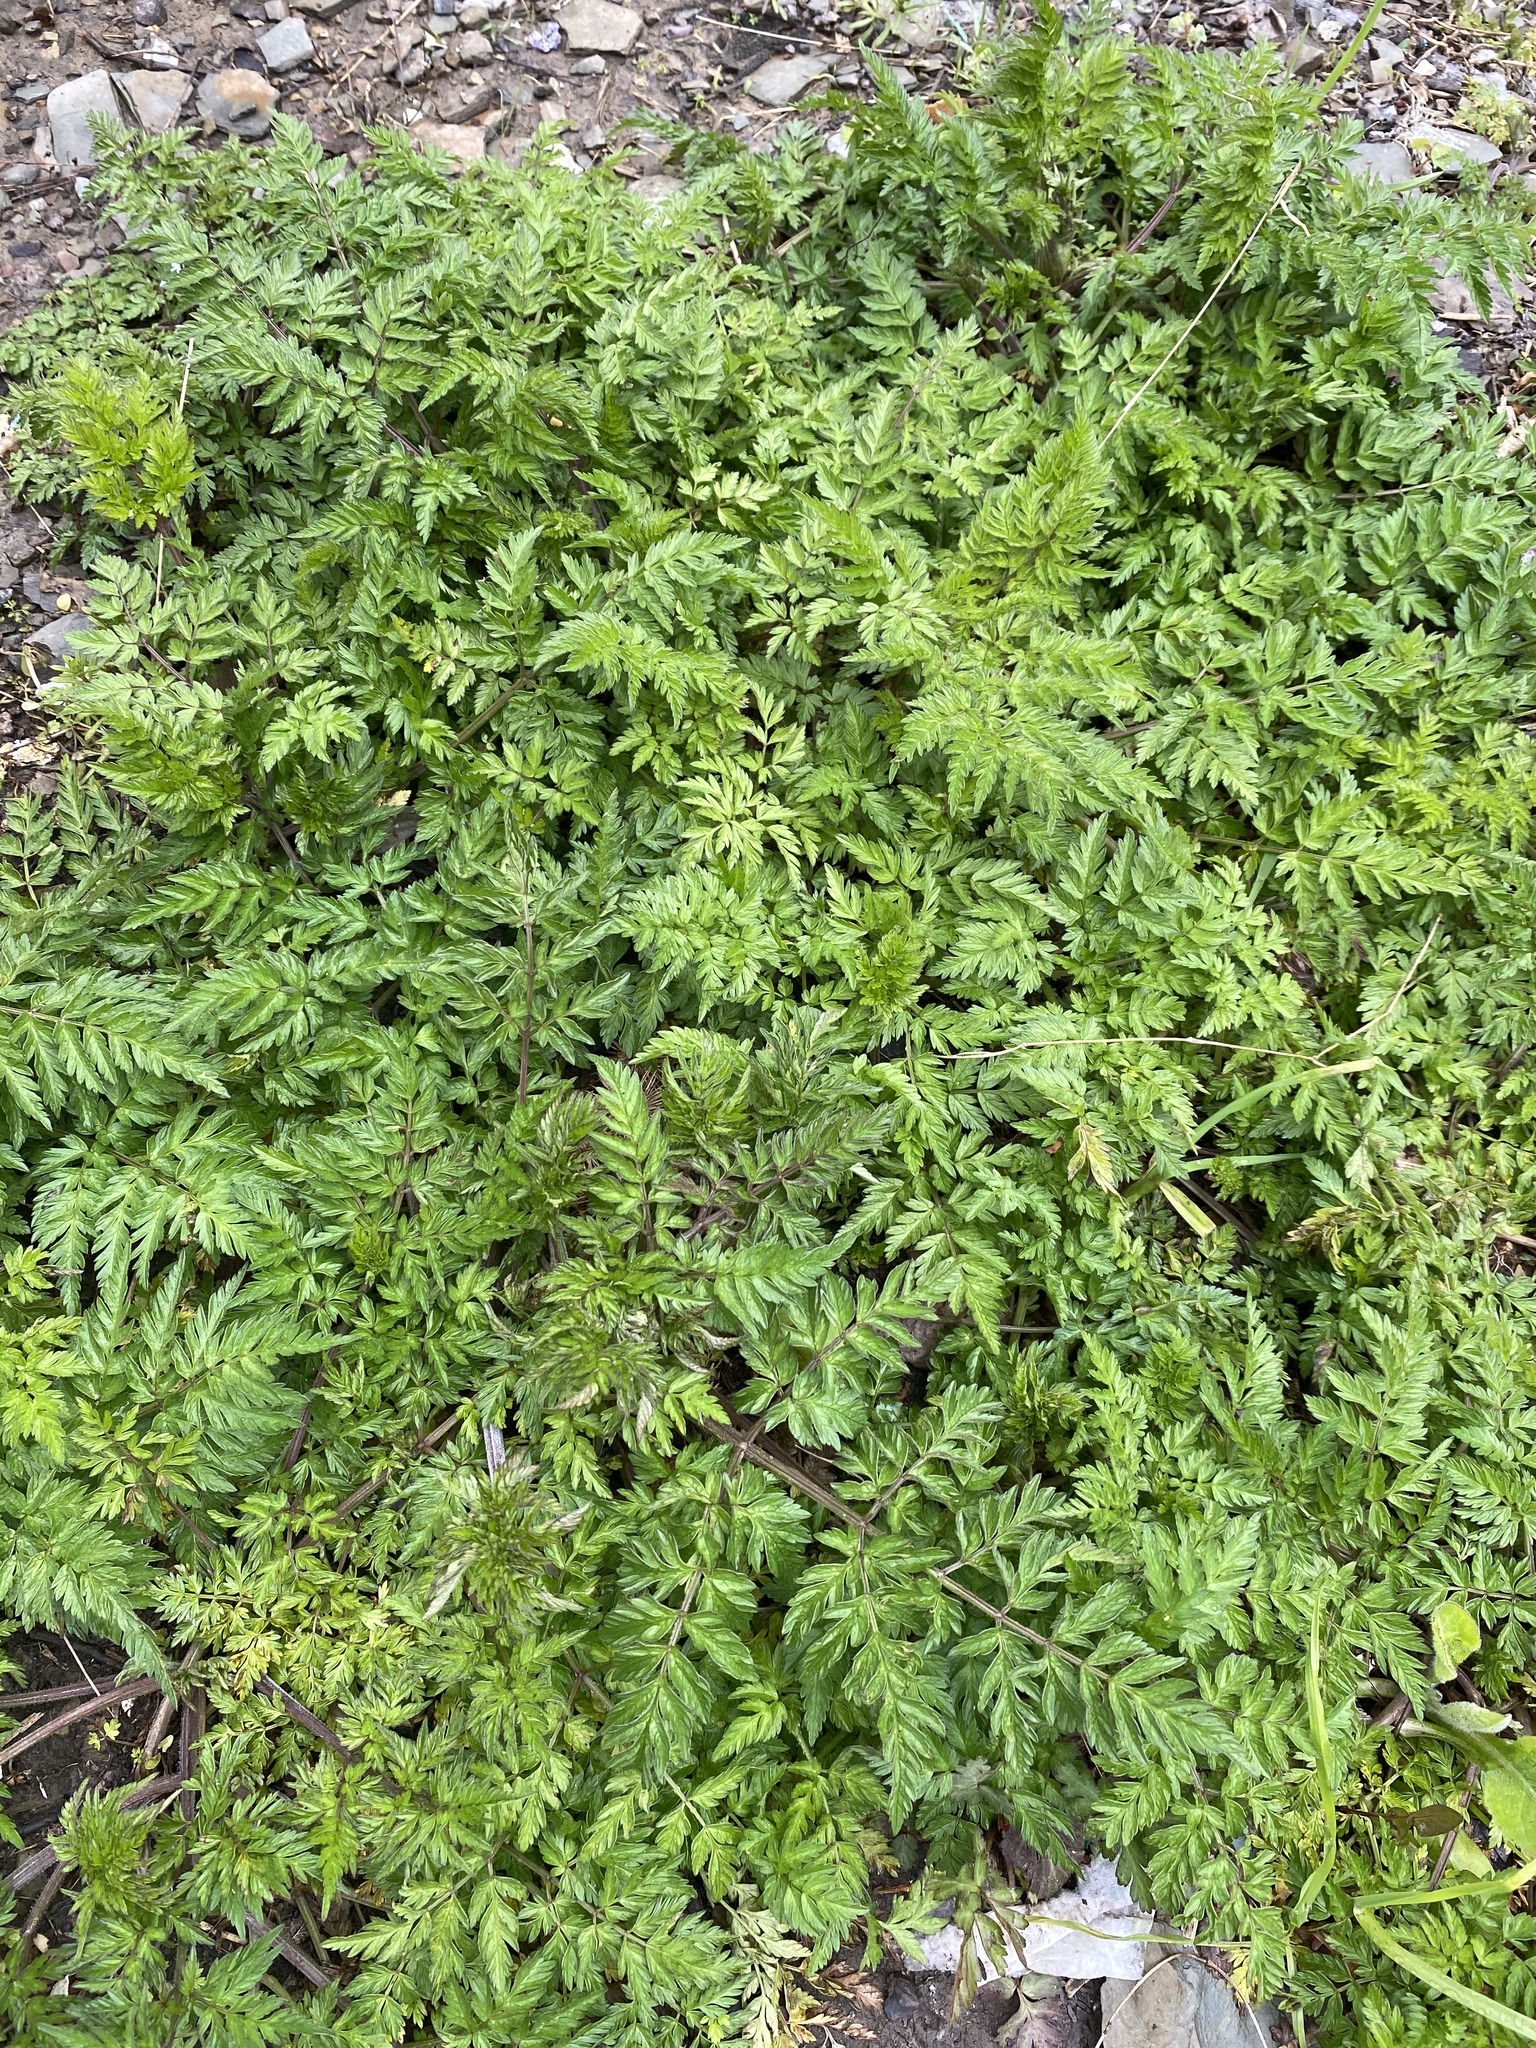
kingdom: Plantae
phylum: Tracheophyta
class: Magnoliopsida
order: Apiales
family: Apiaceae
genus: Anthriscus
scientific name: Anthriscus sylvestris
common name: Cow parsley
